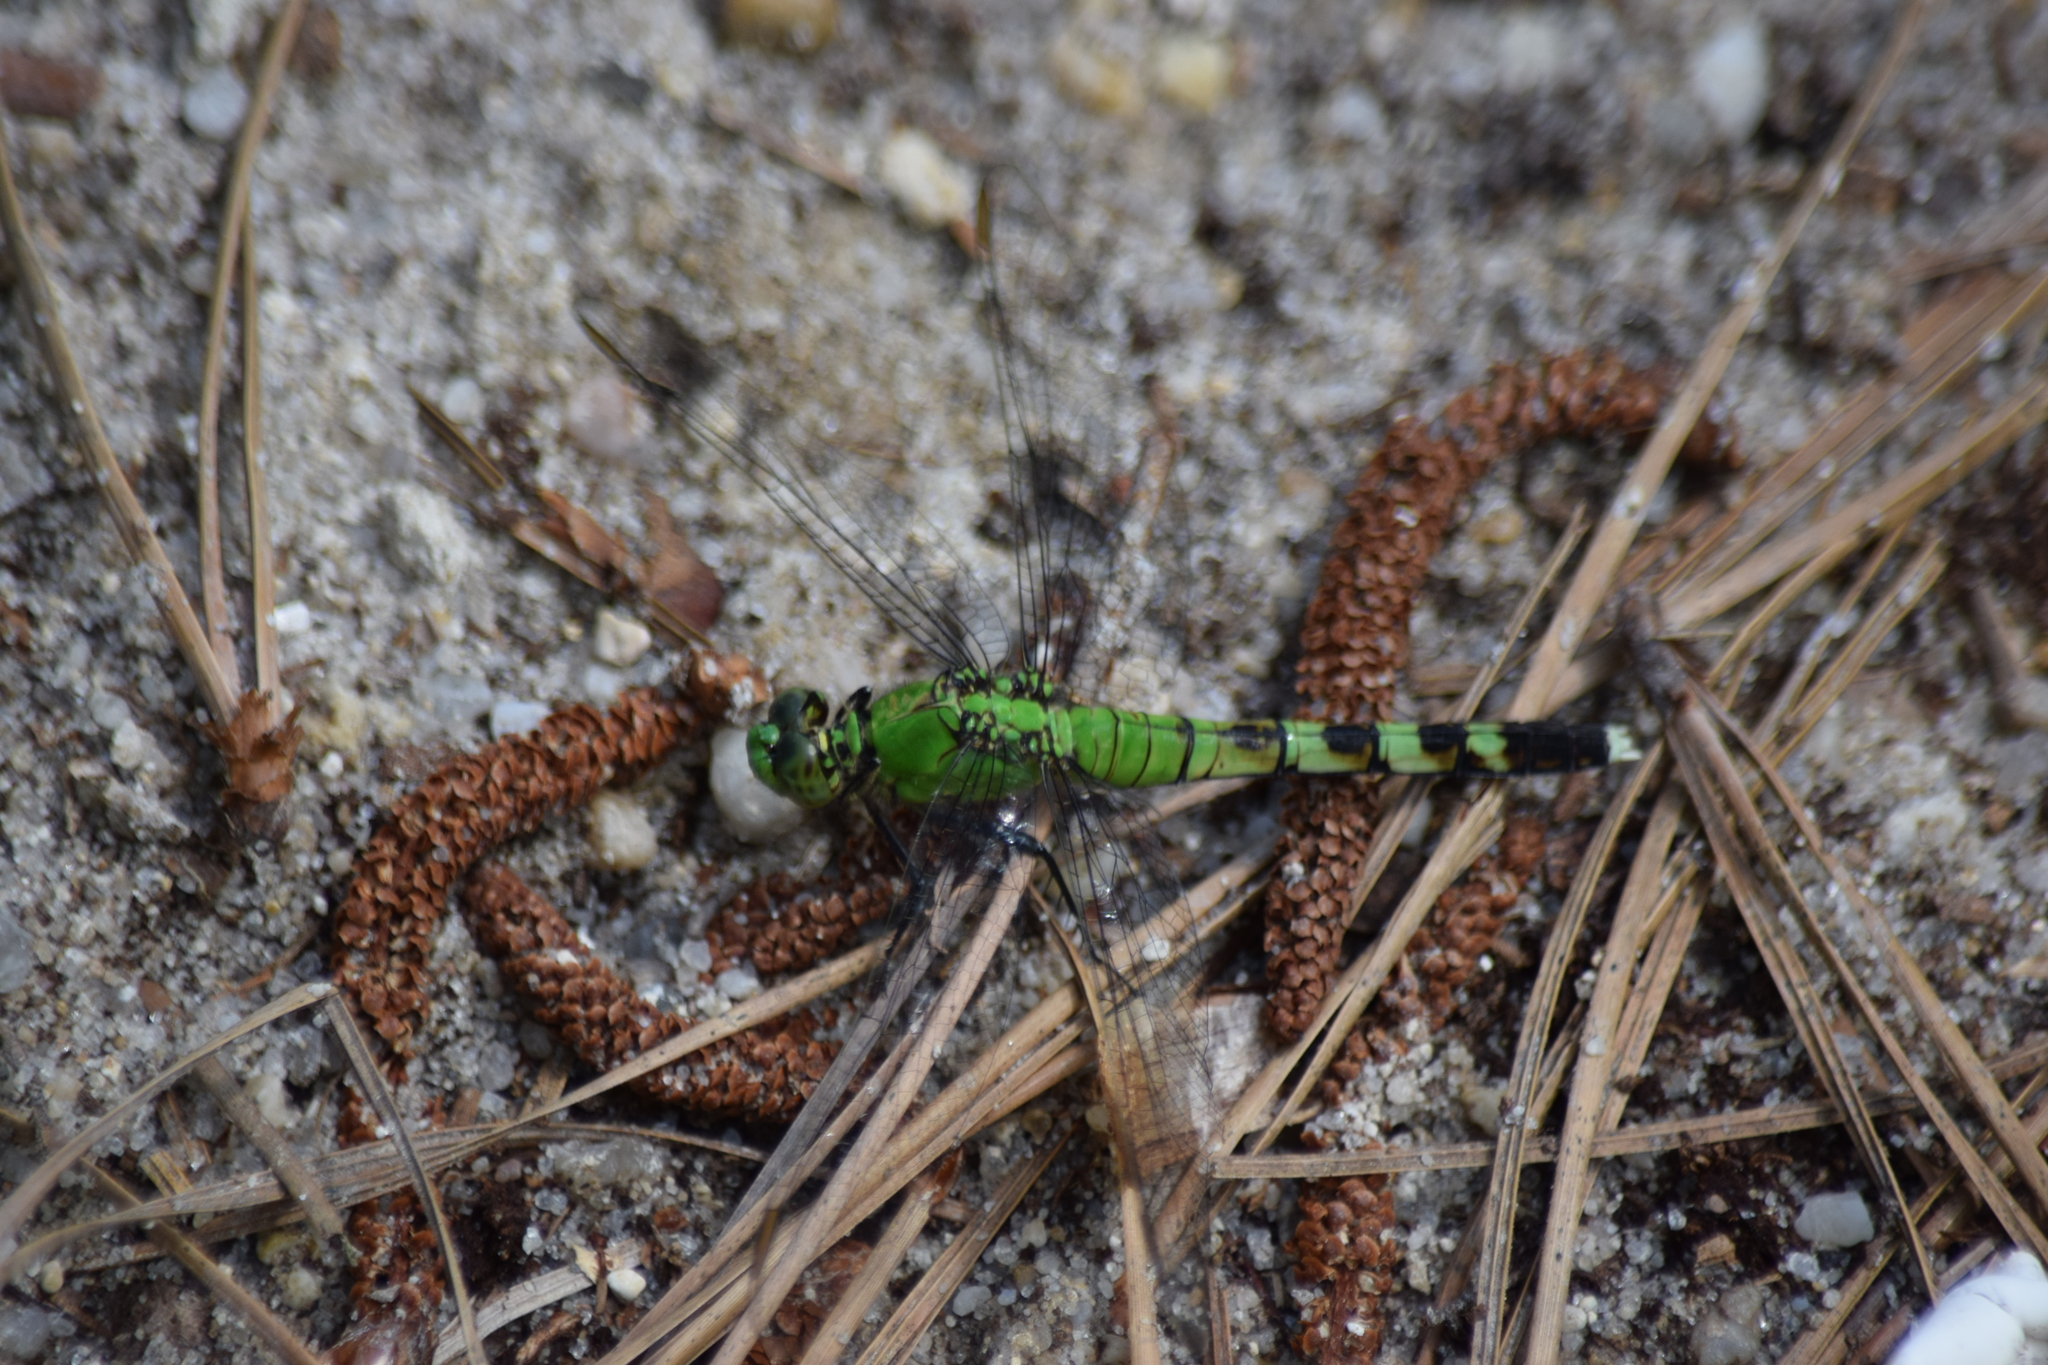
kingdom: Animalia
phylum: Arthropoda
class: Insecta
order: Odonata
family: Libellulidae
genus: Erythemis
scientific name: Erythemis simplicicollis
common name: Eastern pondhawk
